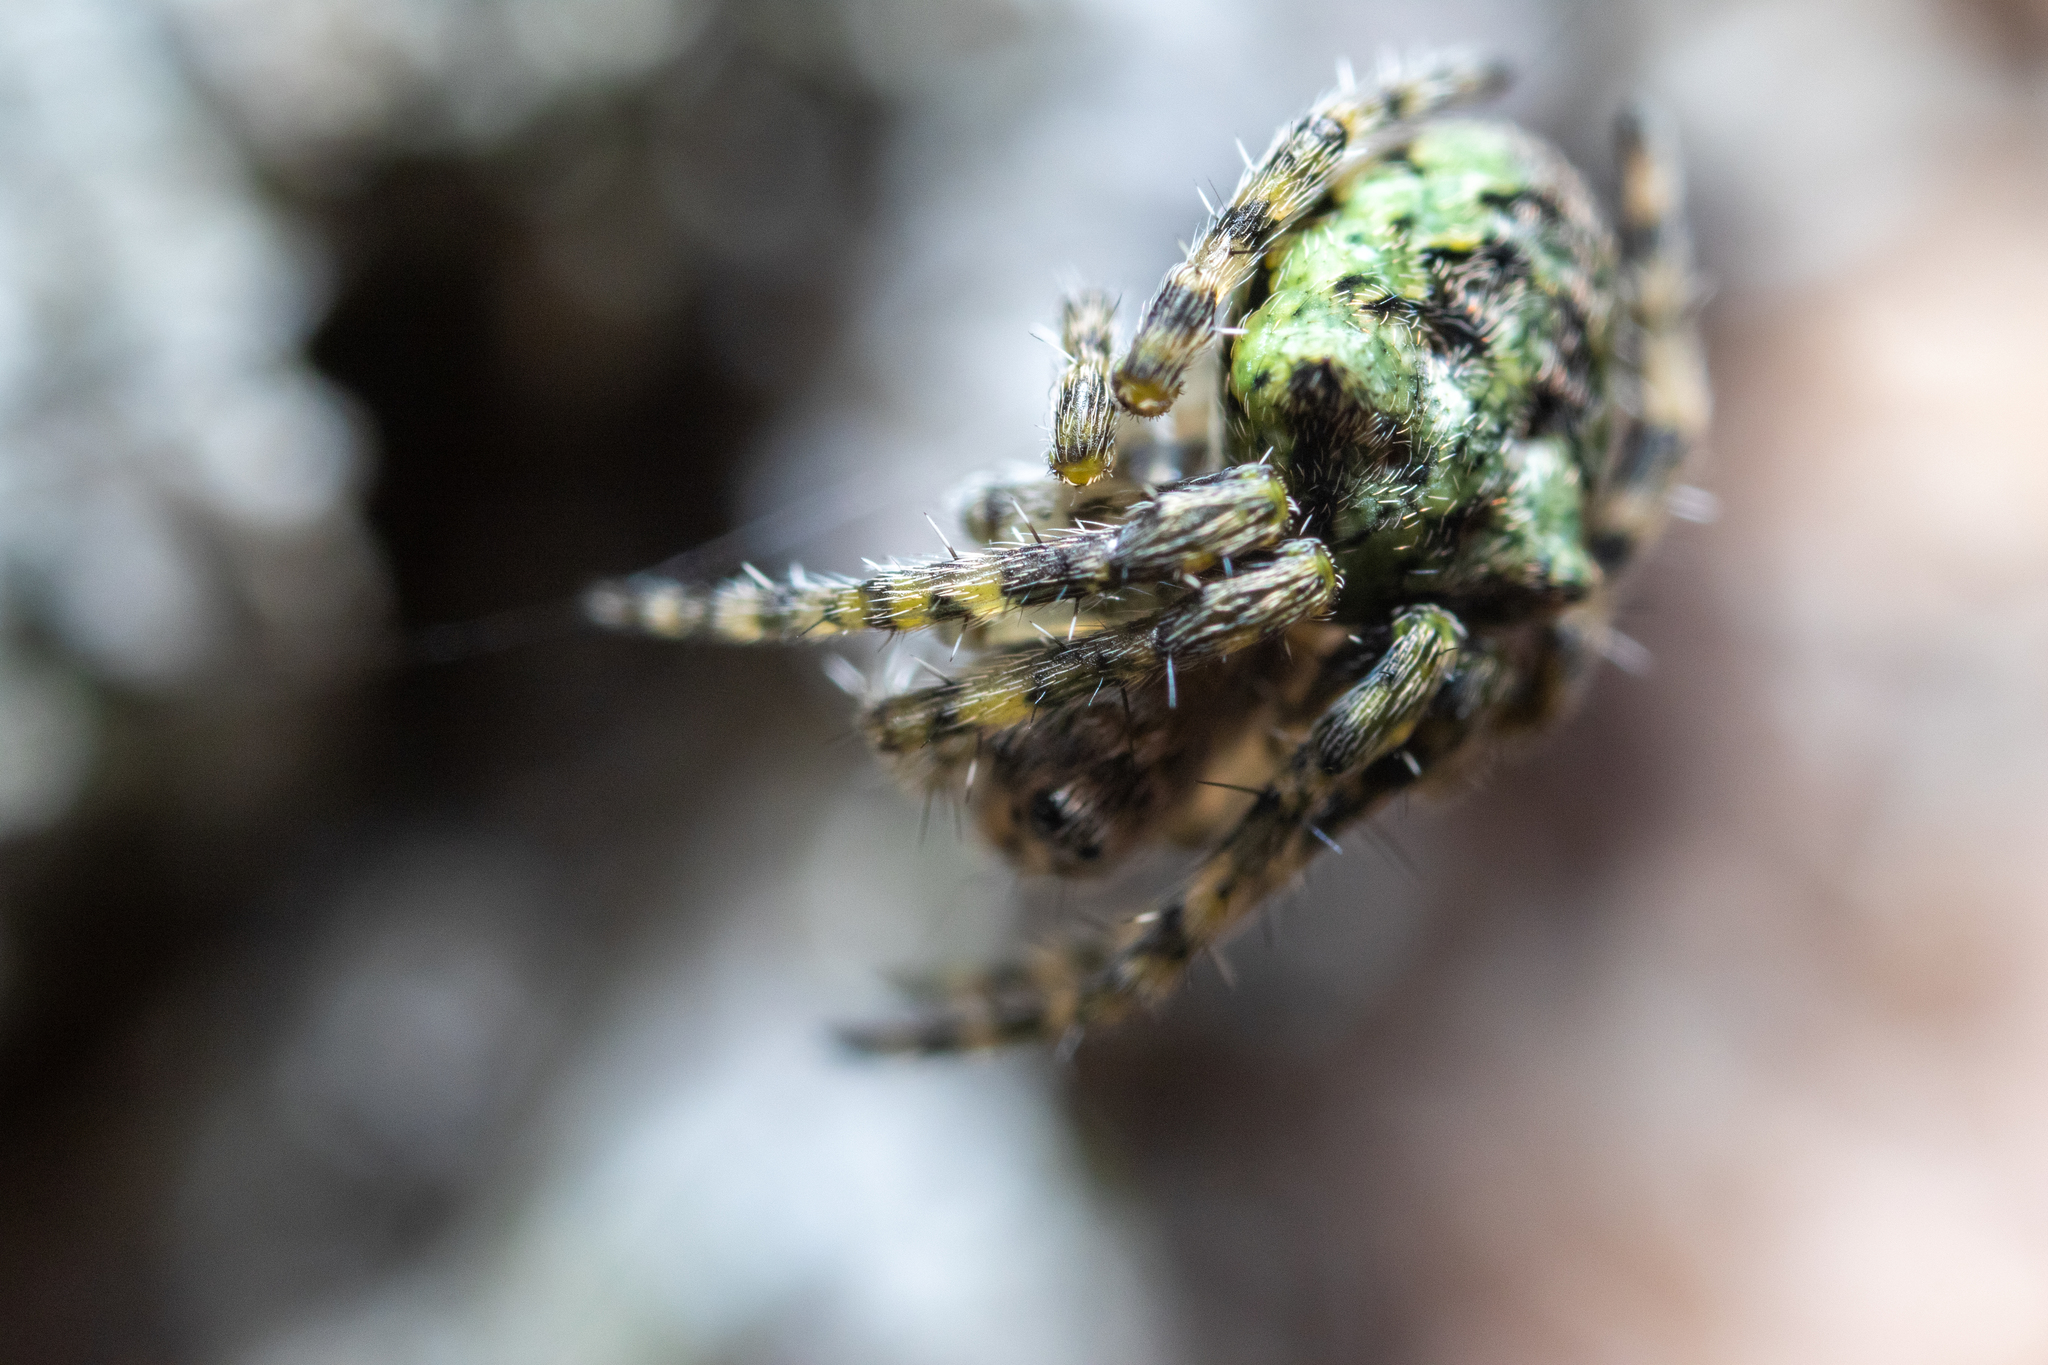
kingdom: Animalia
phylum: Arthropoda
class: Arachnida
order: Araneae
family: Araneidae
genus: Gibbaranea
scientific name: Gibbaranea gibbosa
